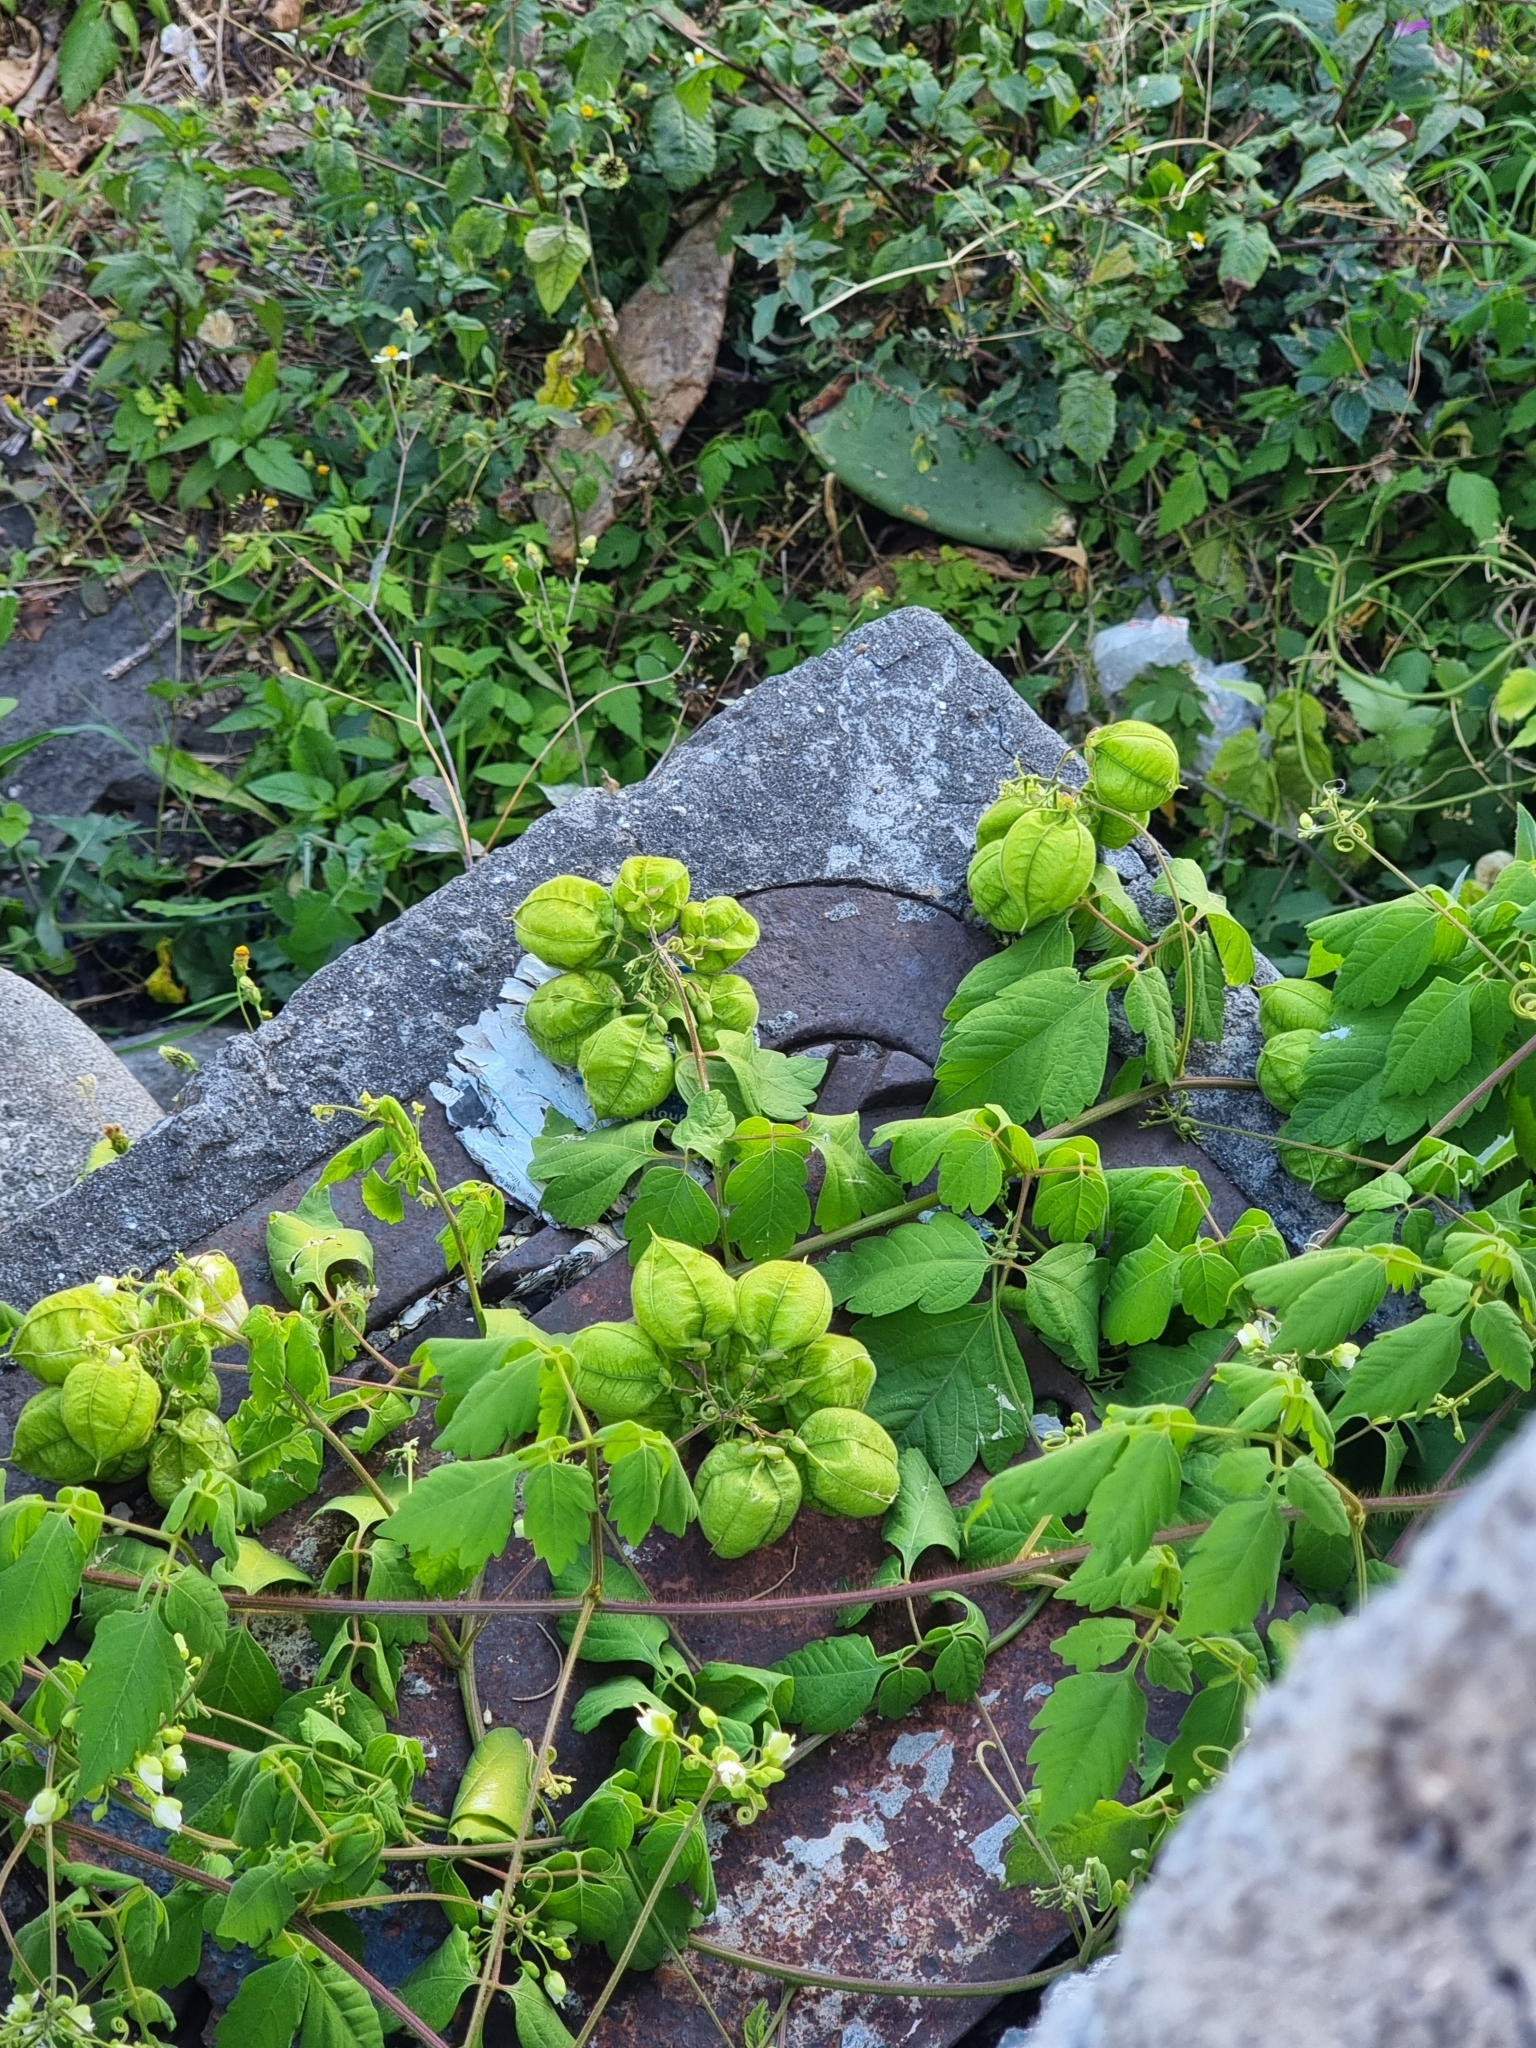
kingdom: Plantae
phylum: Tracheophyta
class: Magnoliopsida
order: Sapindales
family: Sapindaceae
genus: Cardiospermum
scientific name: Cardiospermum grandiflorum
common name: Balloon vine
